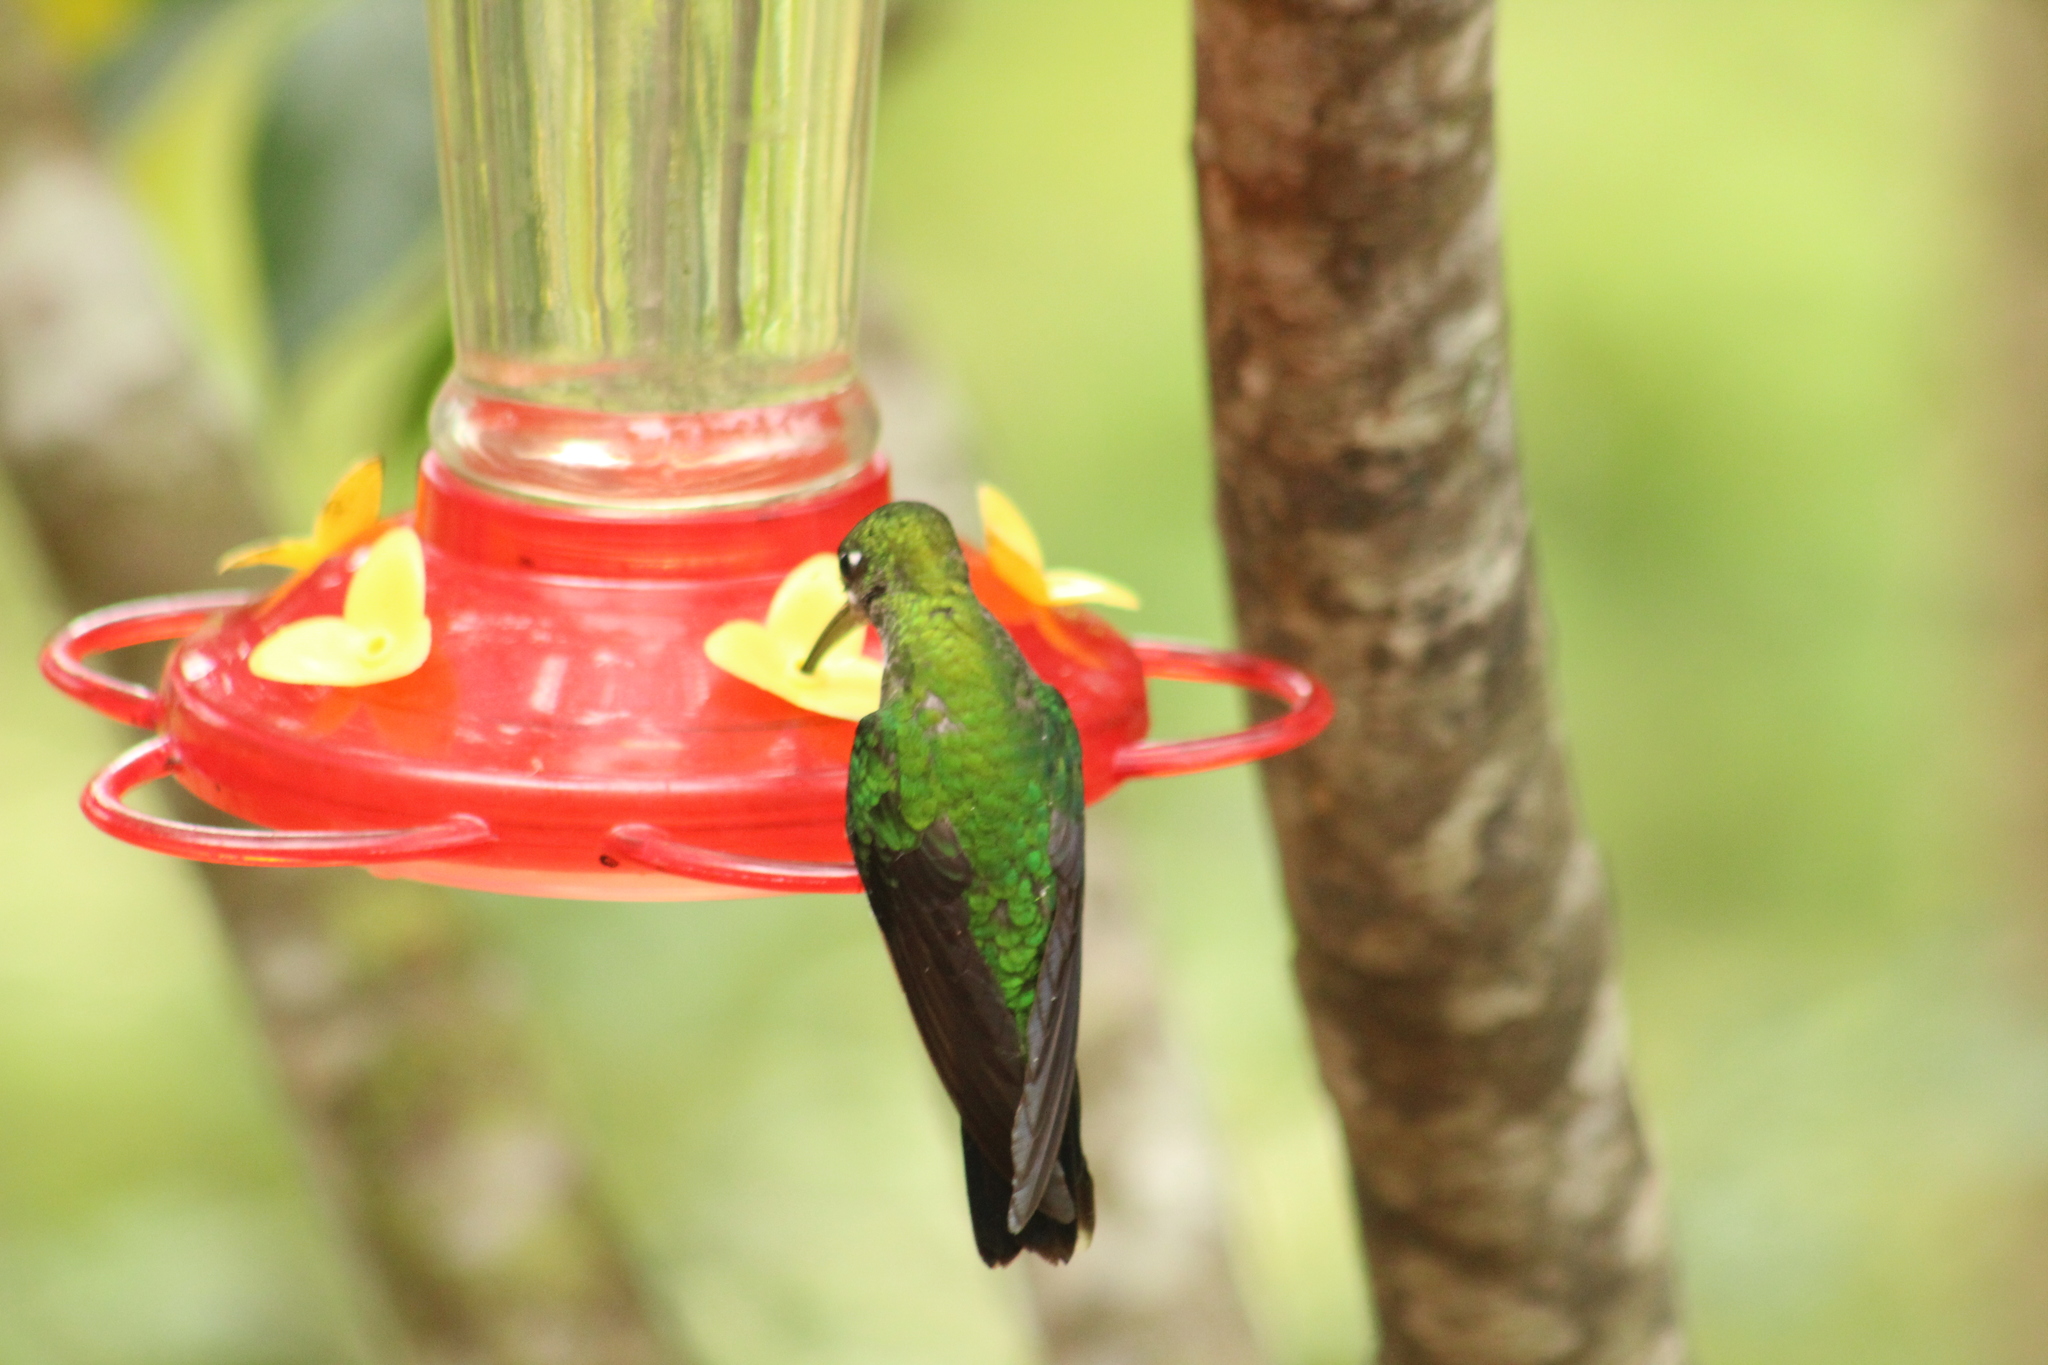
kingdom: Animalia
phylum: Chordata
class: Aves
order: Apodiformes
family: Trochilidae
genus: Heliodoxa
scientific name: Heliodoxa jacula
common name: Green-crowned brilliant
